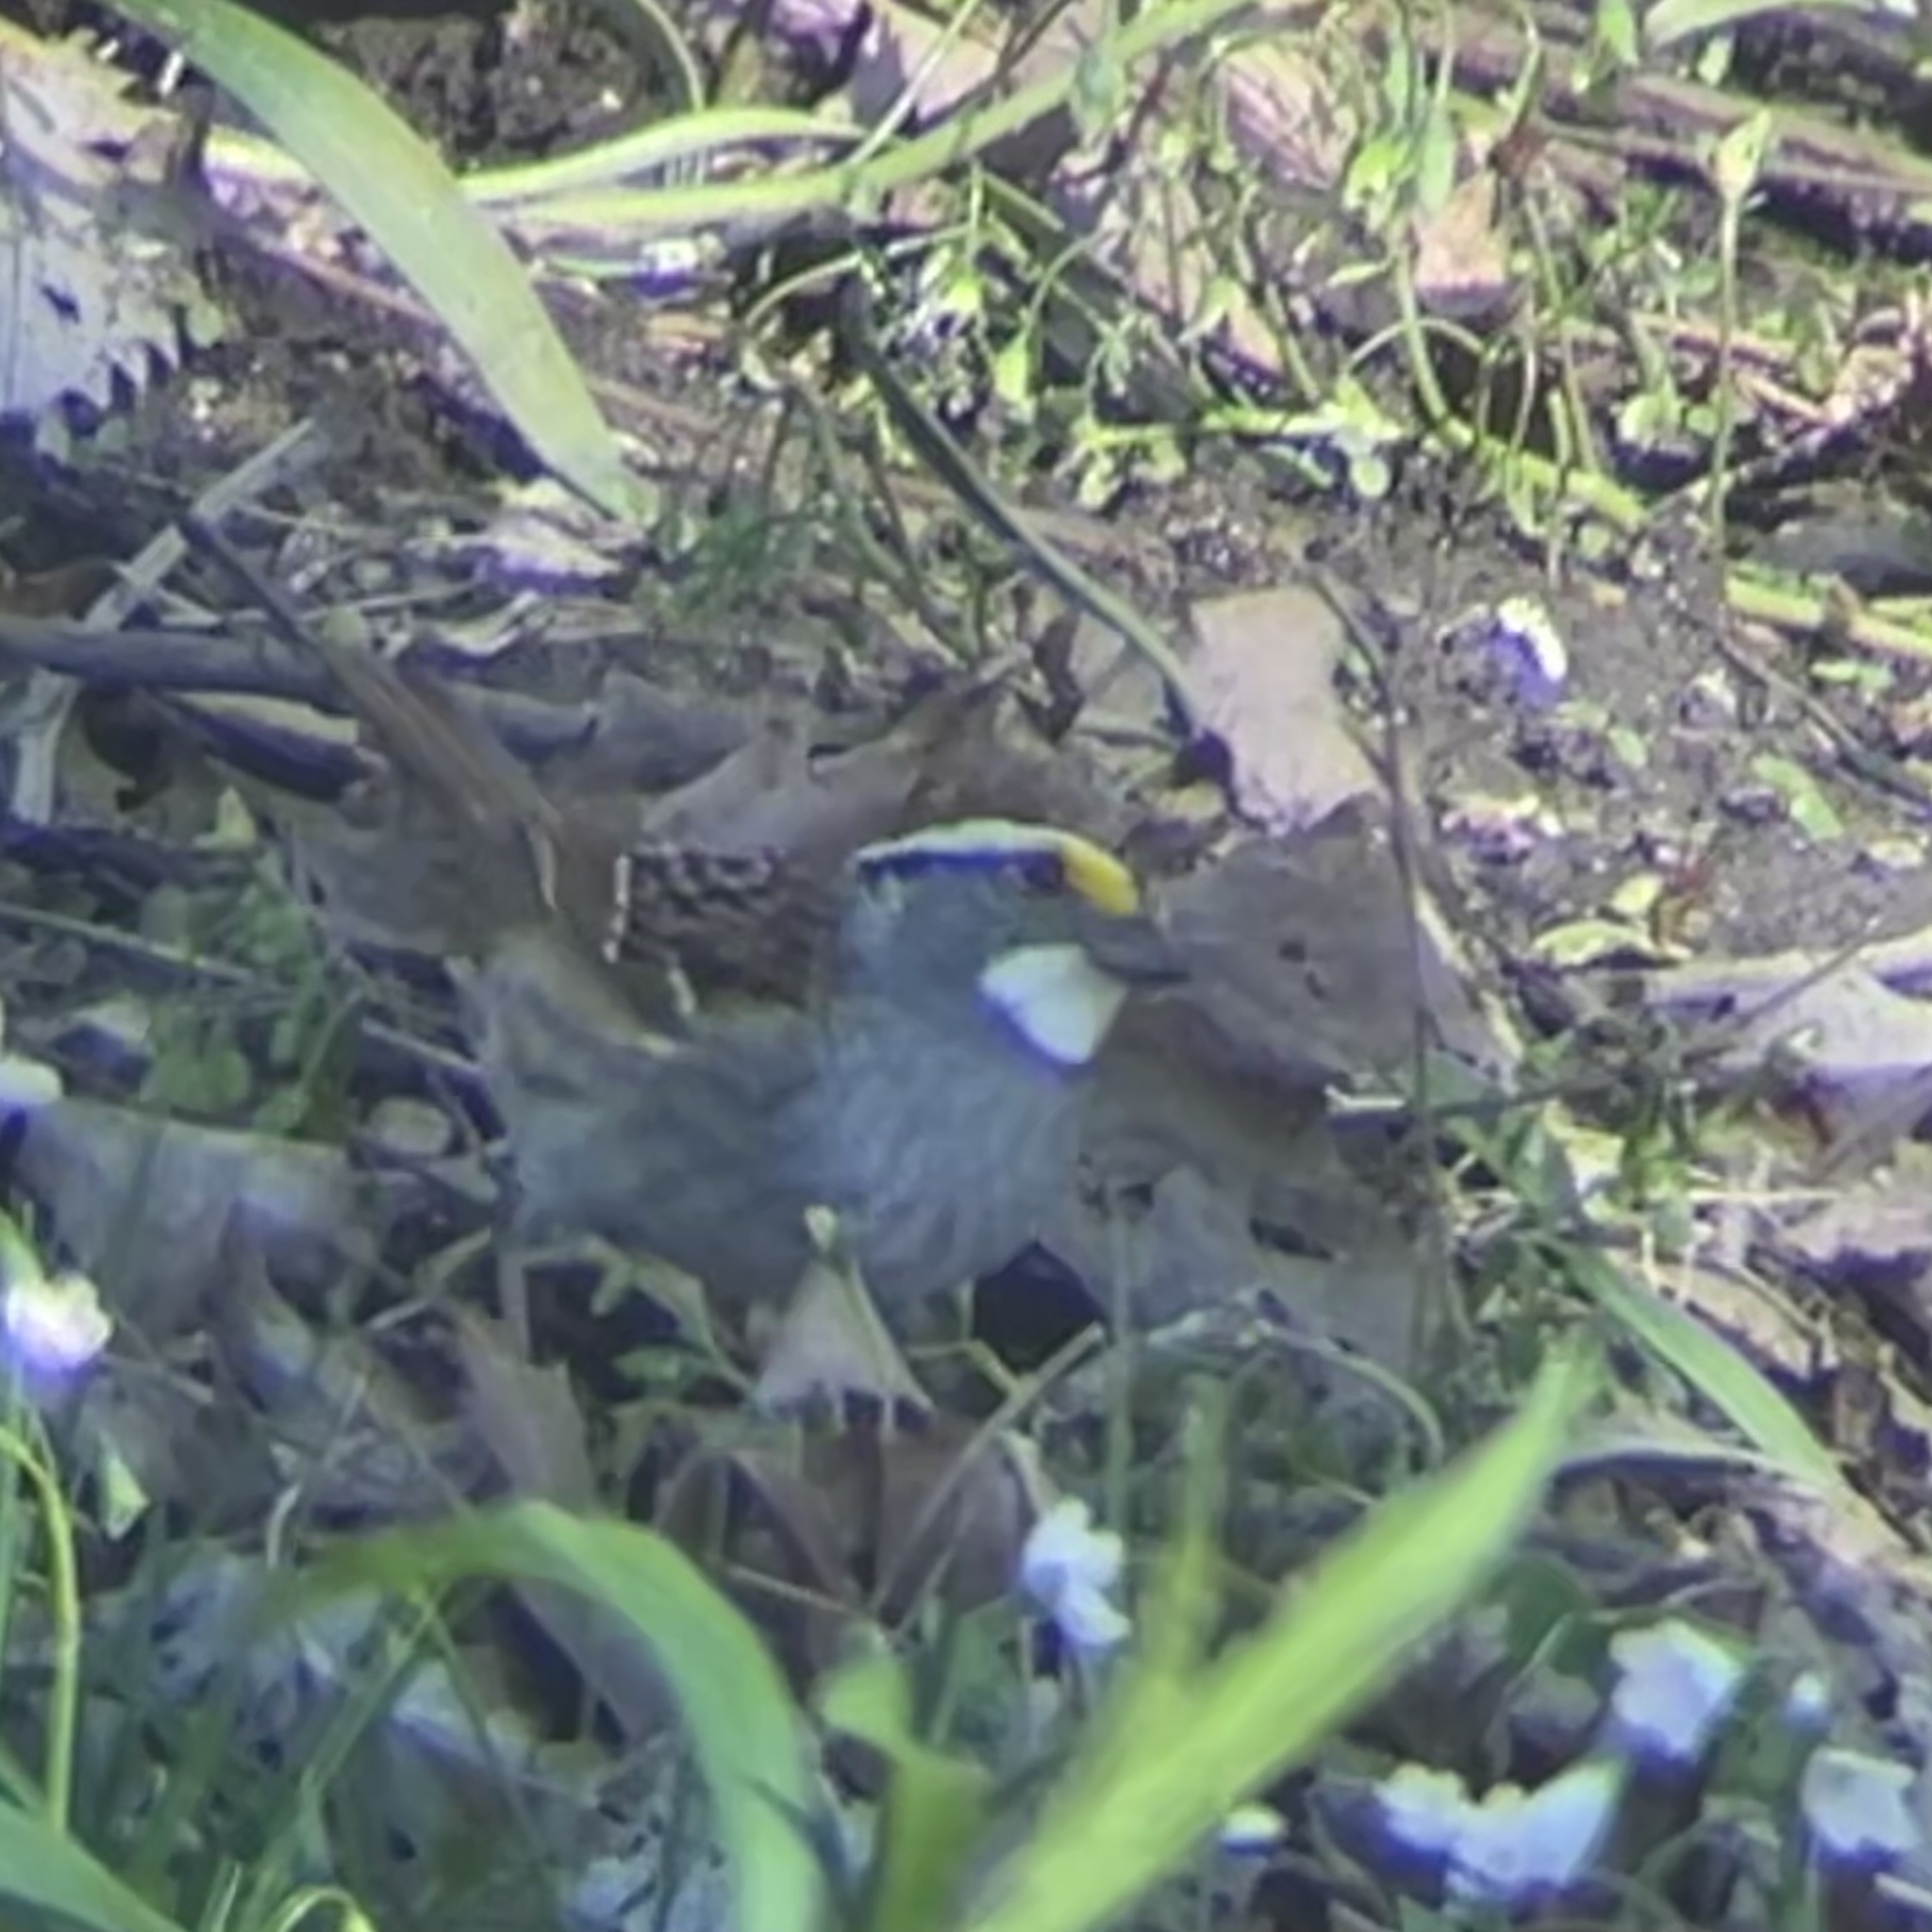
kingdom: Animalia
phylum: Chordata
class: Aves
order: Passeriformes
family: Passerellidae
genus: Zonotrichia
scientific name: Zonotrichia albicollis
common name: White-throated sparrow
